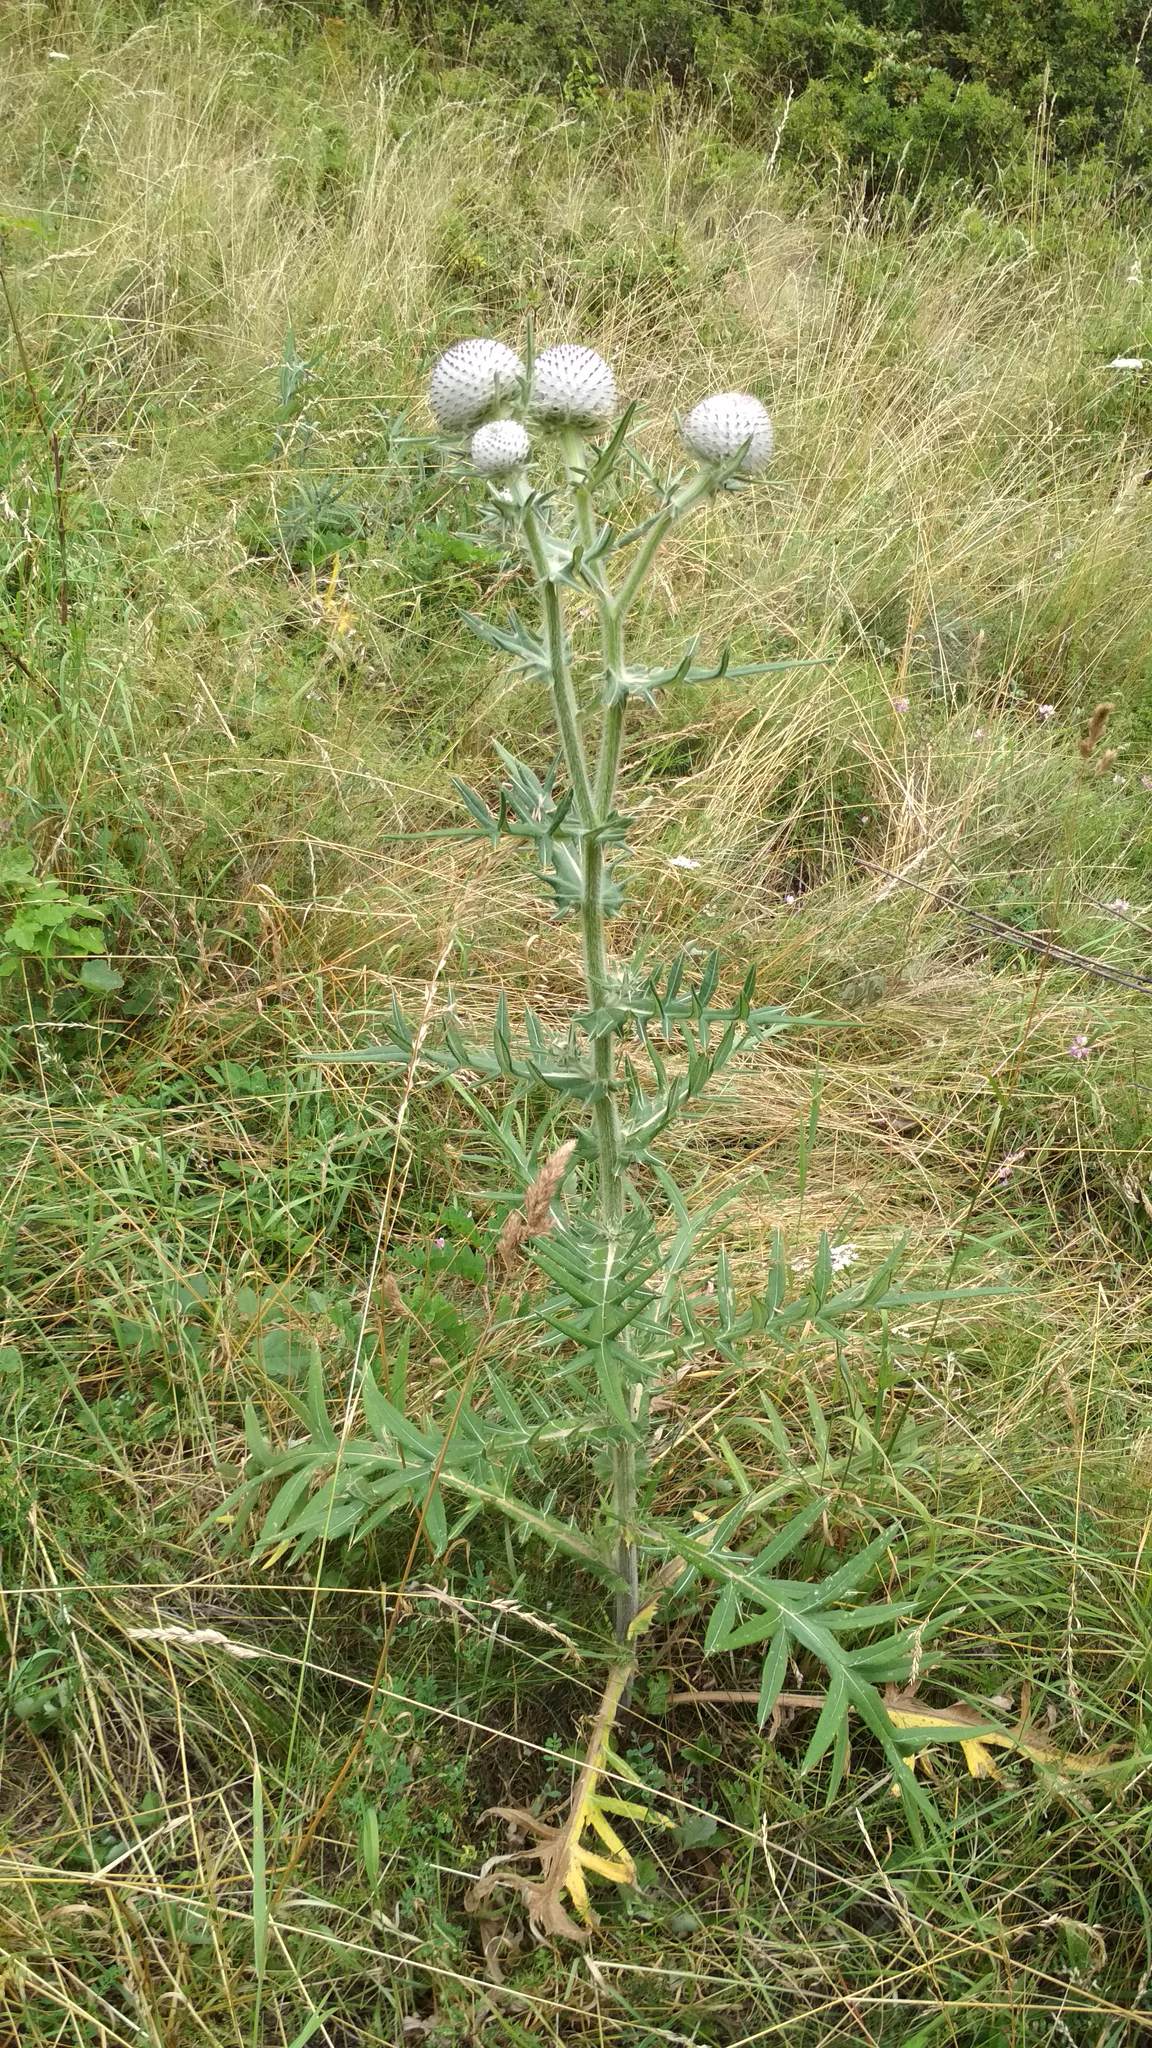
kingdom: Plantae
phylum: Tracheophyta
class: Magnoliopsida
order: Asterales
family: Asteraceae
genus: Lophiolepis
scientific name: Lophiolepis eriophora
